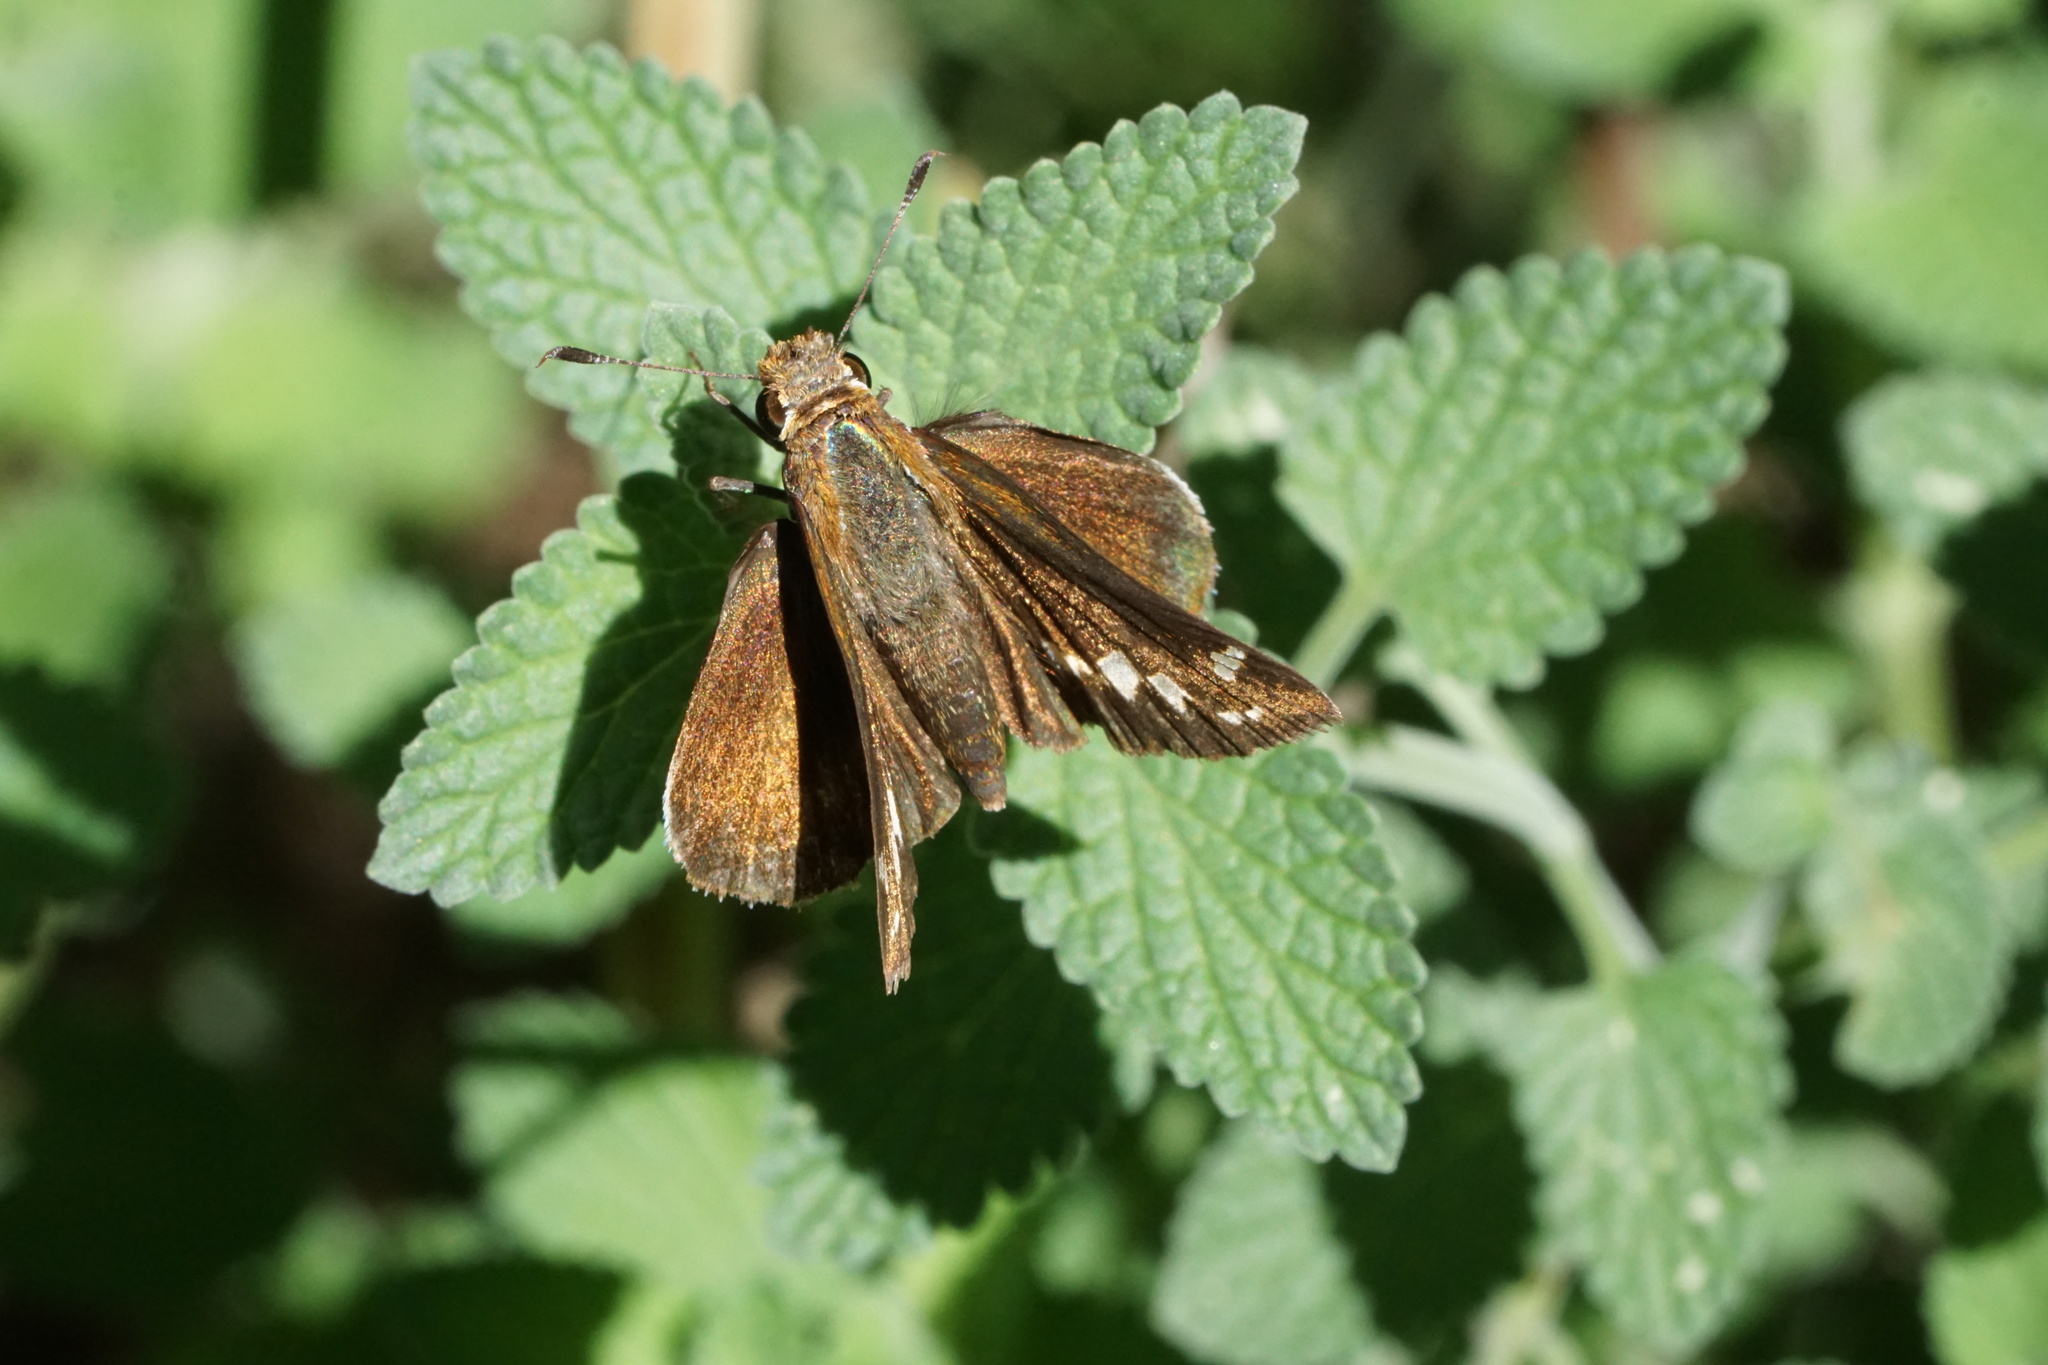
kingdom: Animalia
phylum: Arthropoda
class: Insecta
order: Lepidoptera
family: Hesperiidae
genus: Lon
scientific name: Lon zabulon
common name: Zabulon skipper
